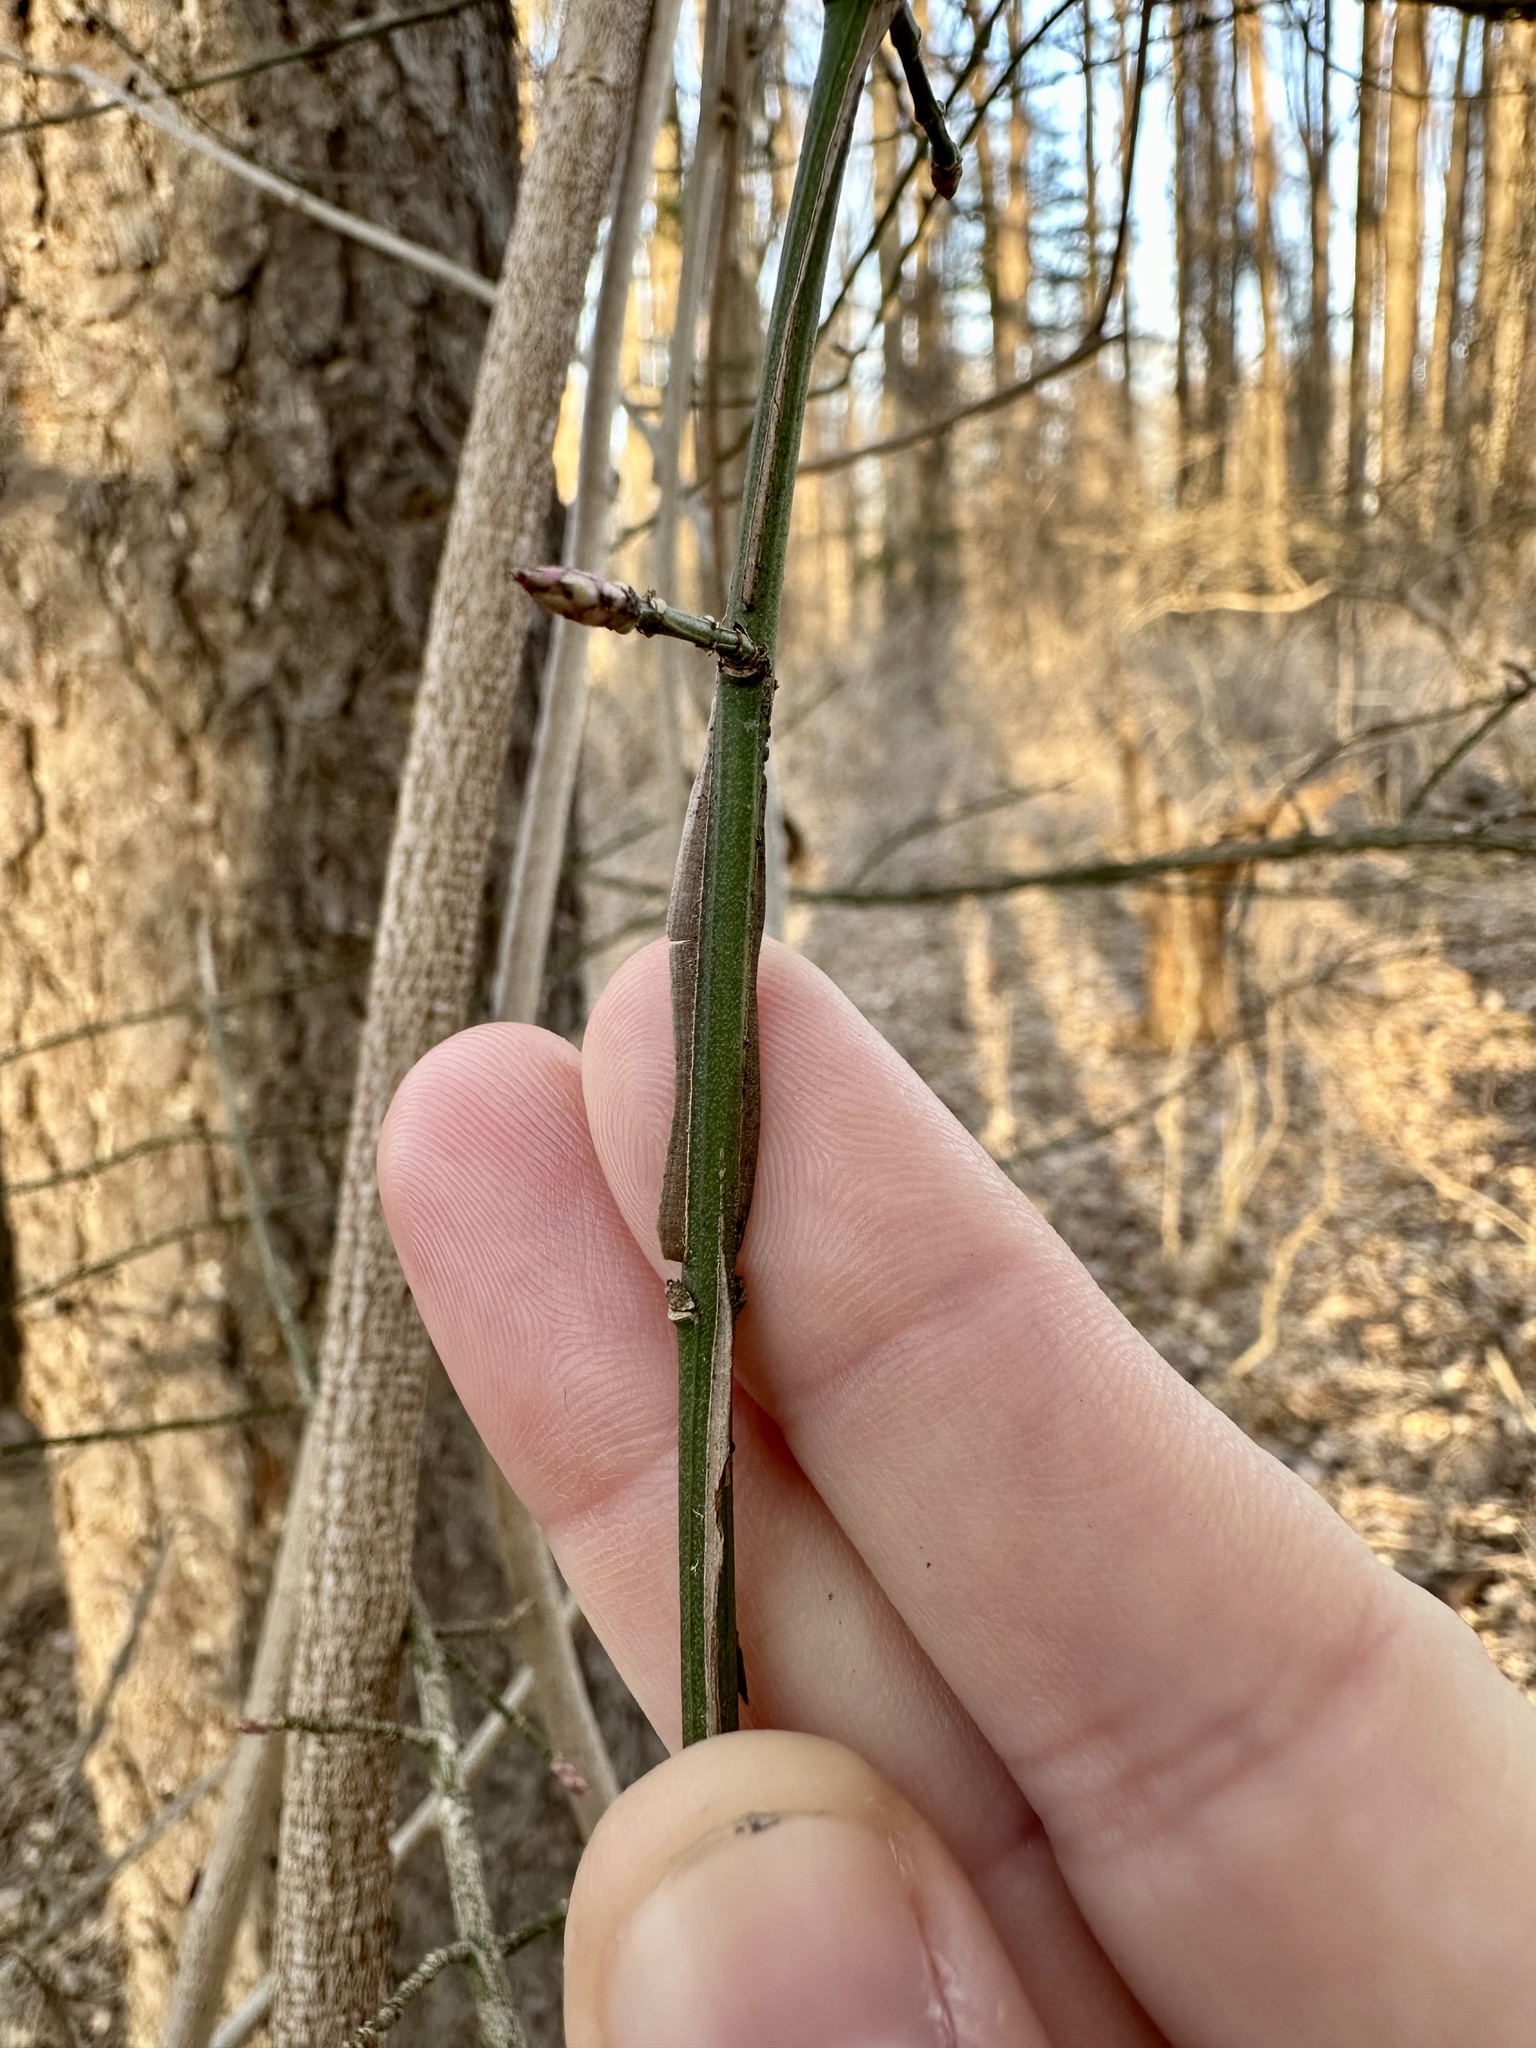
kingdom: Plantae
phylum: Tracheophyta
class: Magnoliopsida
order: Celastrales
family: Celastraceae
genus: Euonymus
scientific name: Euonymus alatus
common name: Winged euonymus
